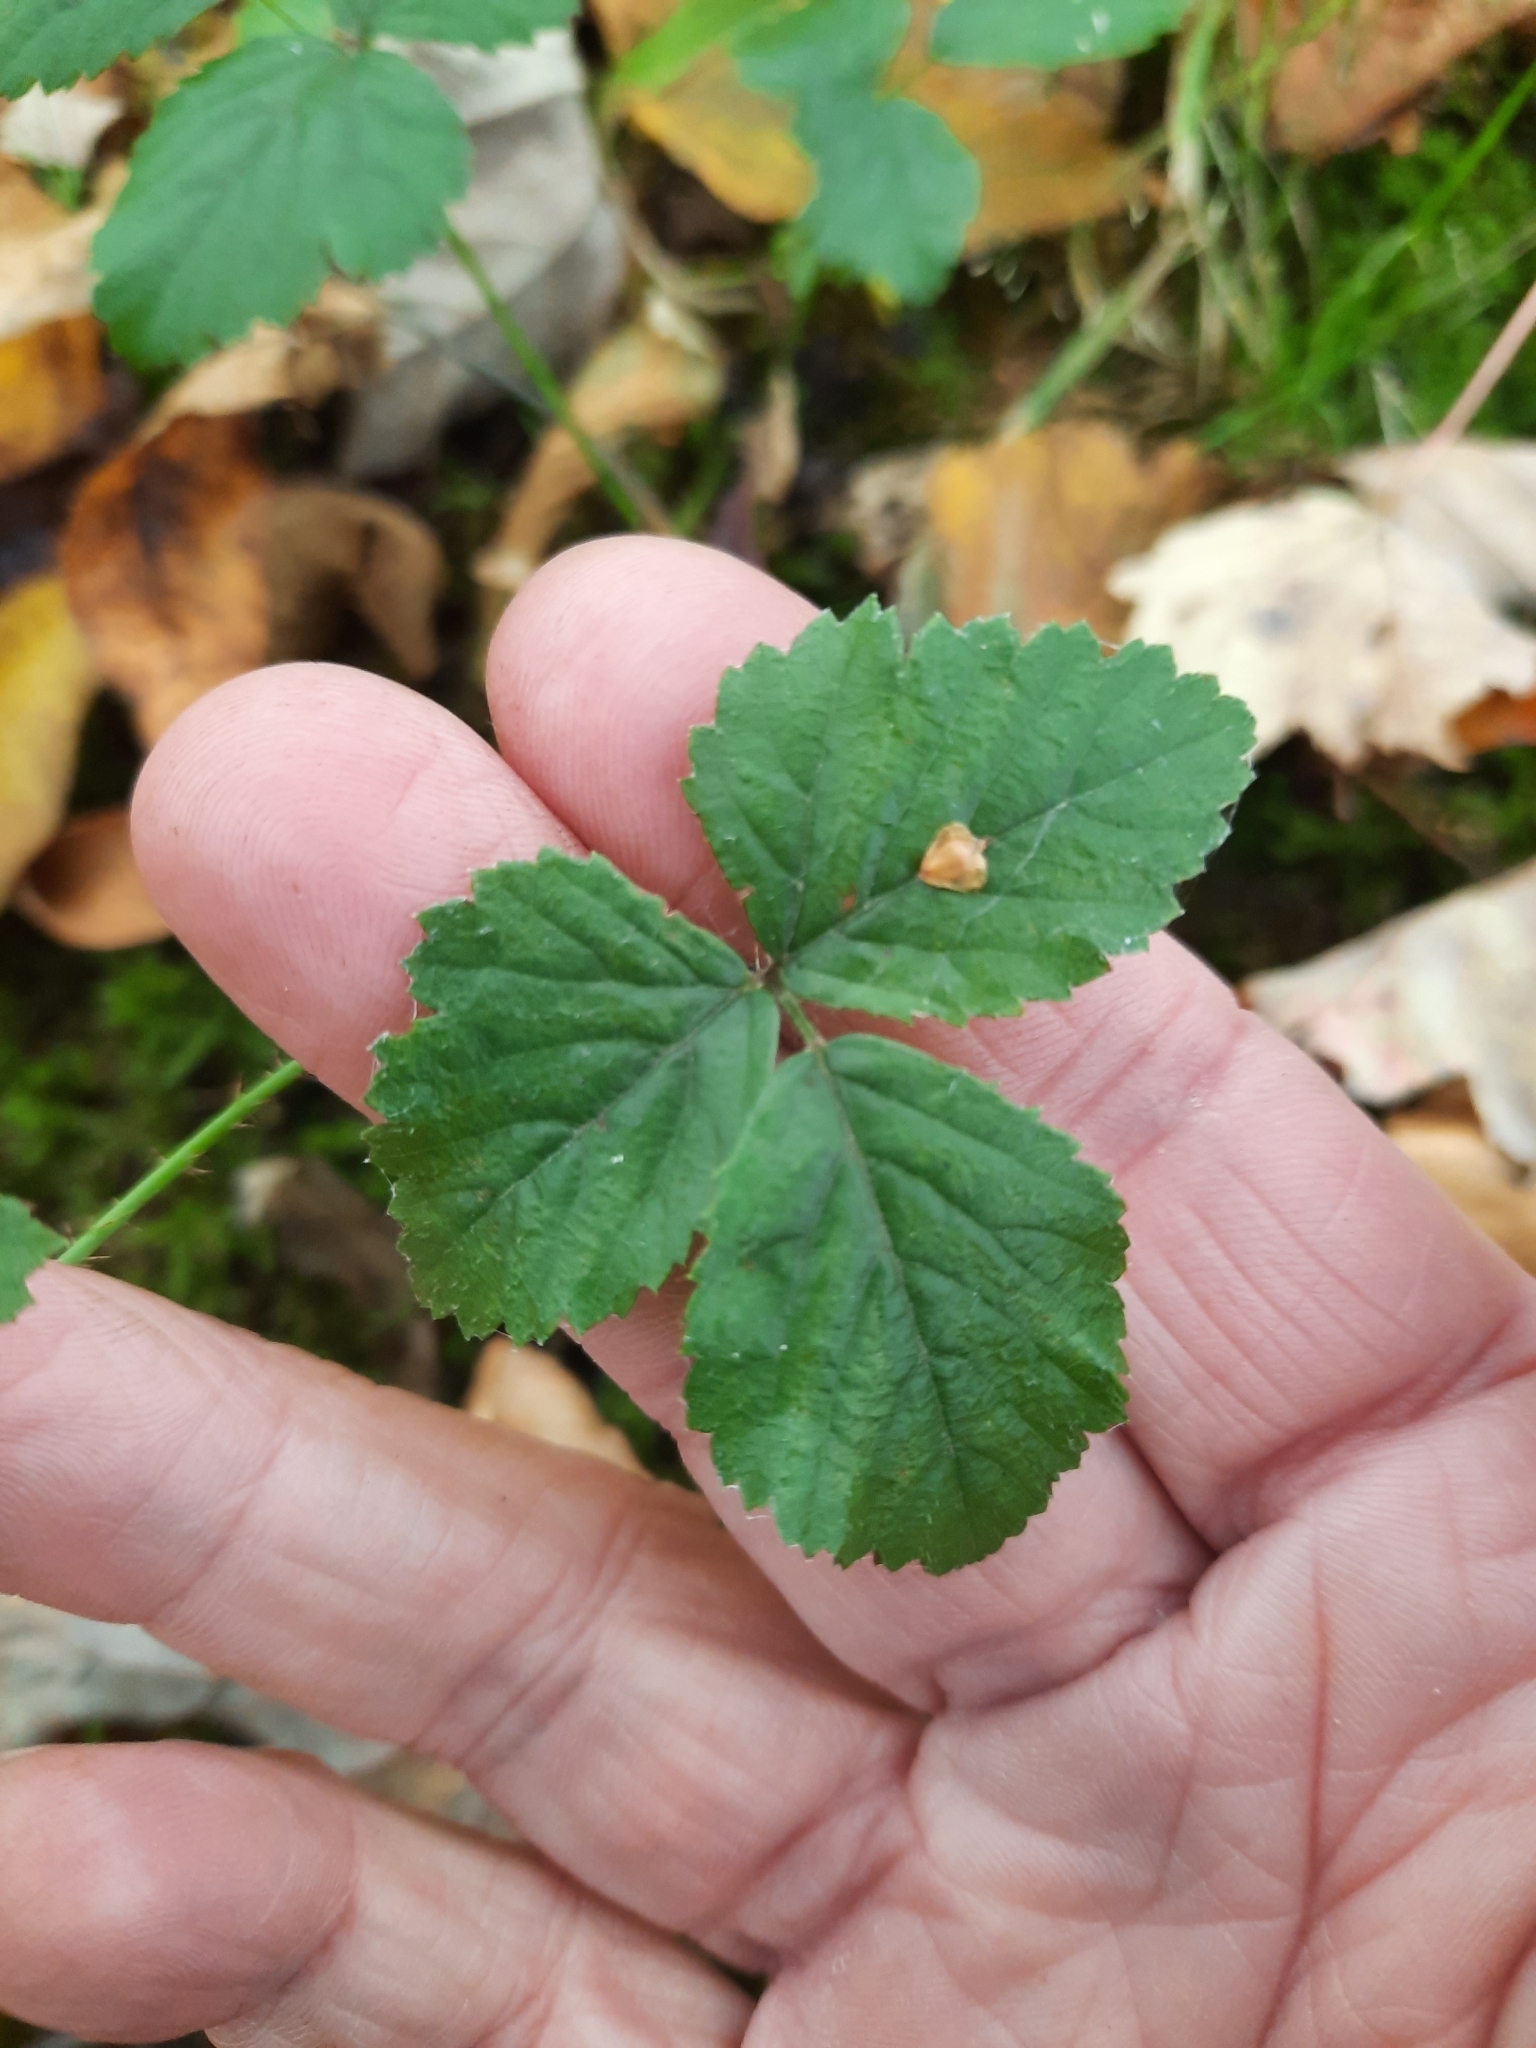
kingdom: Plantae
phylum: Tracheophyta
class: Magnoliopsida
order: Rosales
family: Rosaceae
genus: Rubus
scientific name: Rubus hispidus
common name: Running blackberry
